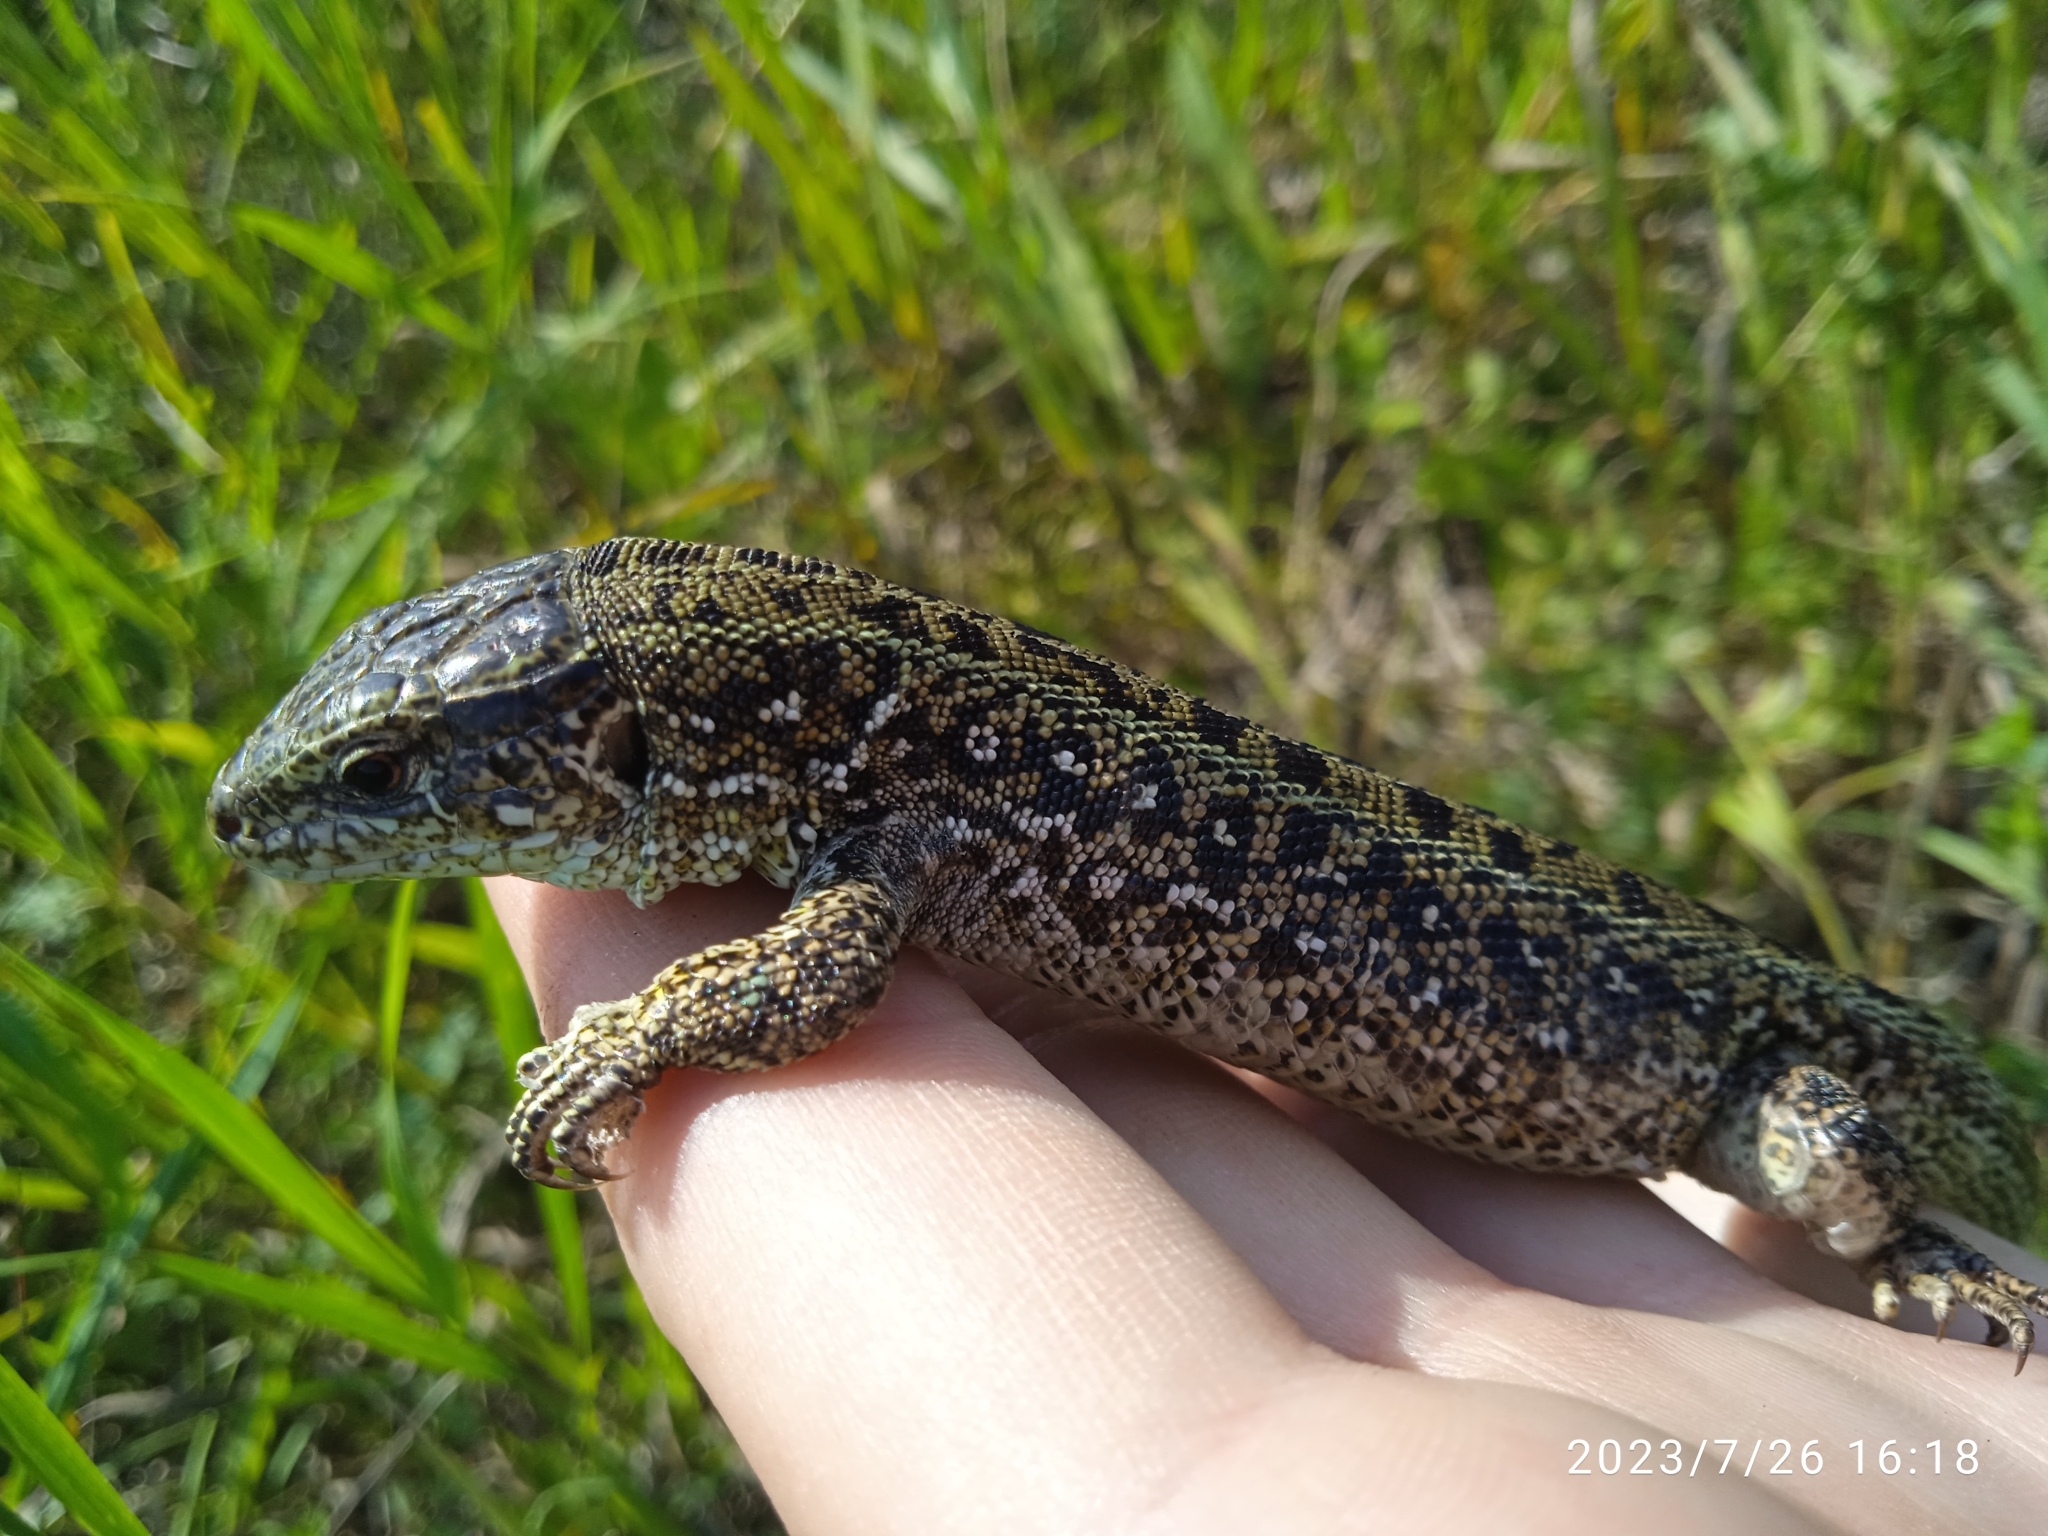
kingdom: Animalia
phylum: Chordata
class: Squamata
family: Lacertidae
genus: Lacerta
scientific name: Lacerta agilis
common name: Sand lizard
